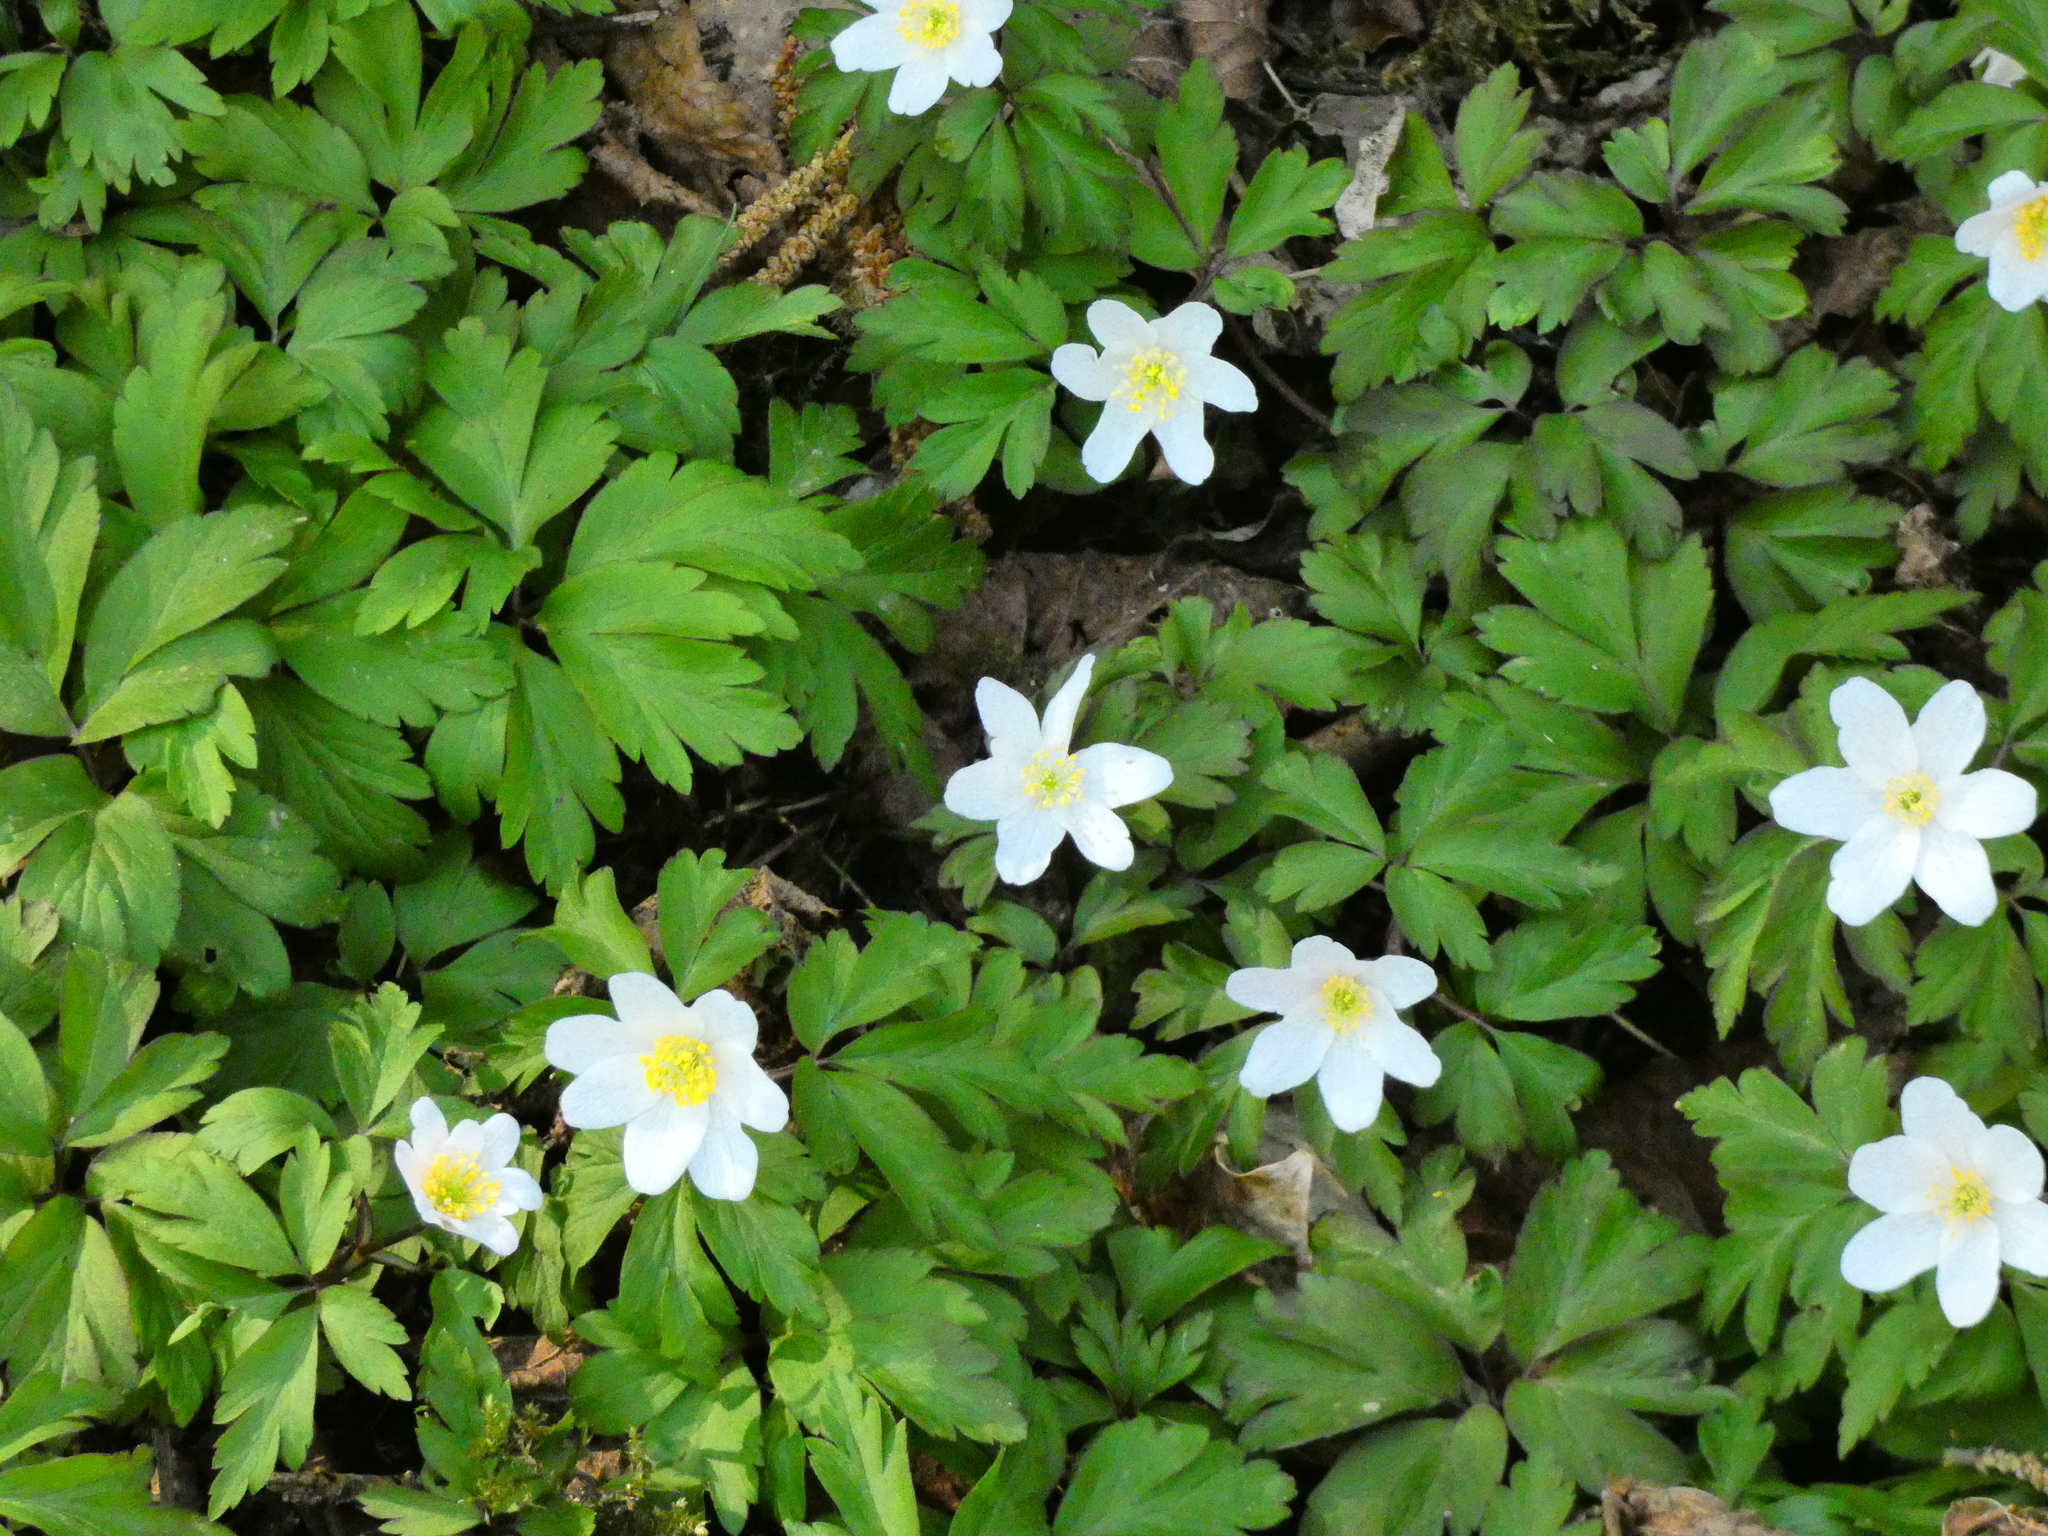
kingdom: Plantae
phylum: Tracheophyta
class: Magnoliopsida
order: Ranunculales
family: Ranunculaceae
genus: Anemone
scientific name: Anemone nemorosa
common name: Wood anemone
